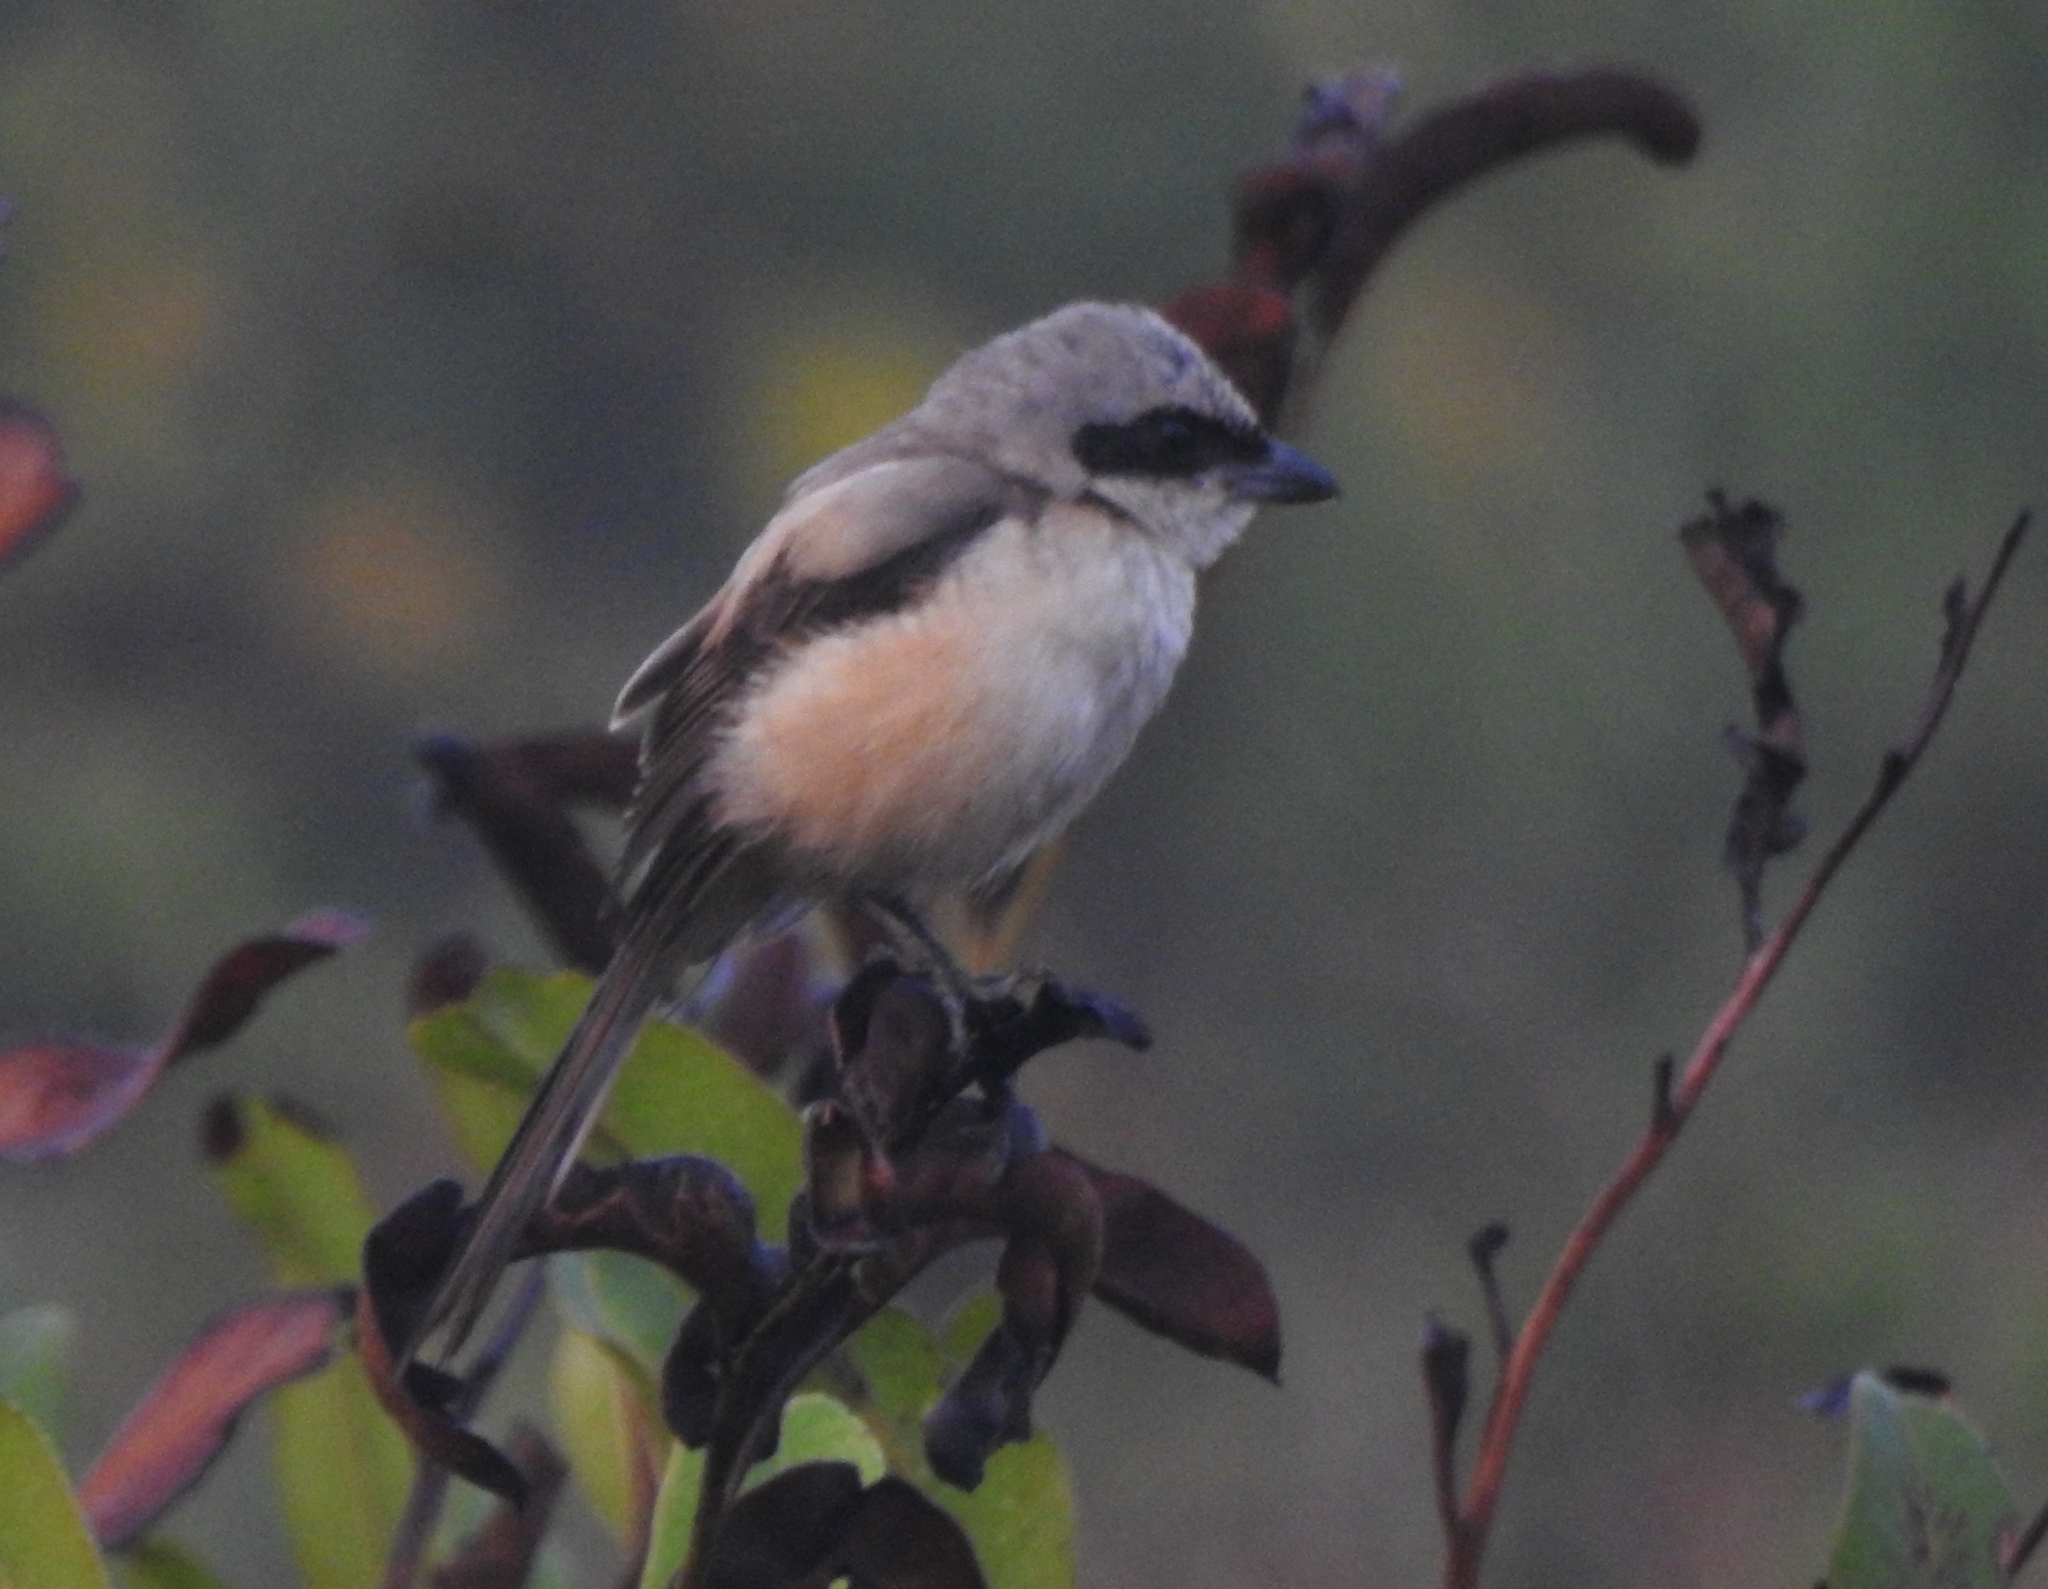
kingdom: Animalia
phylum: Chordata
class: Aves
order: Passeriformes
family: Laniidae
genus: Lanius
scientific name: Lanius schach
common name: Long-tailed shrike
